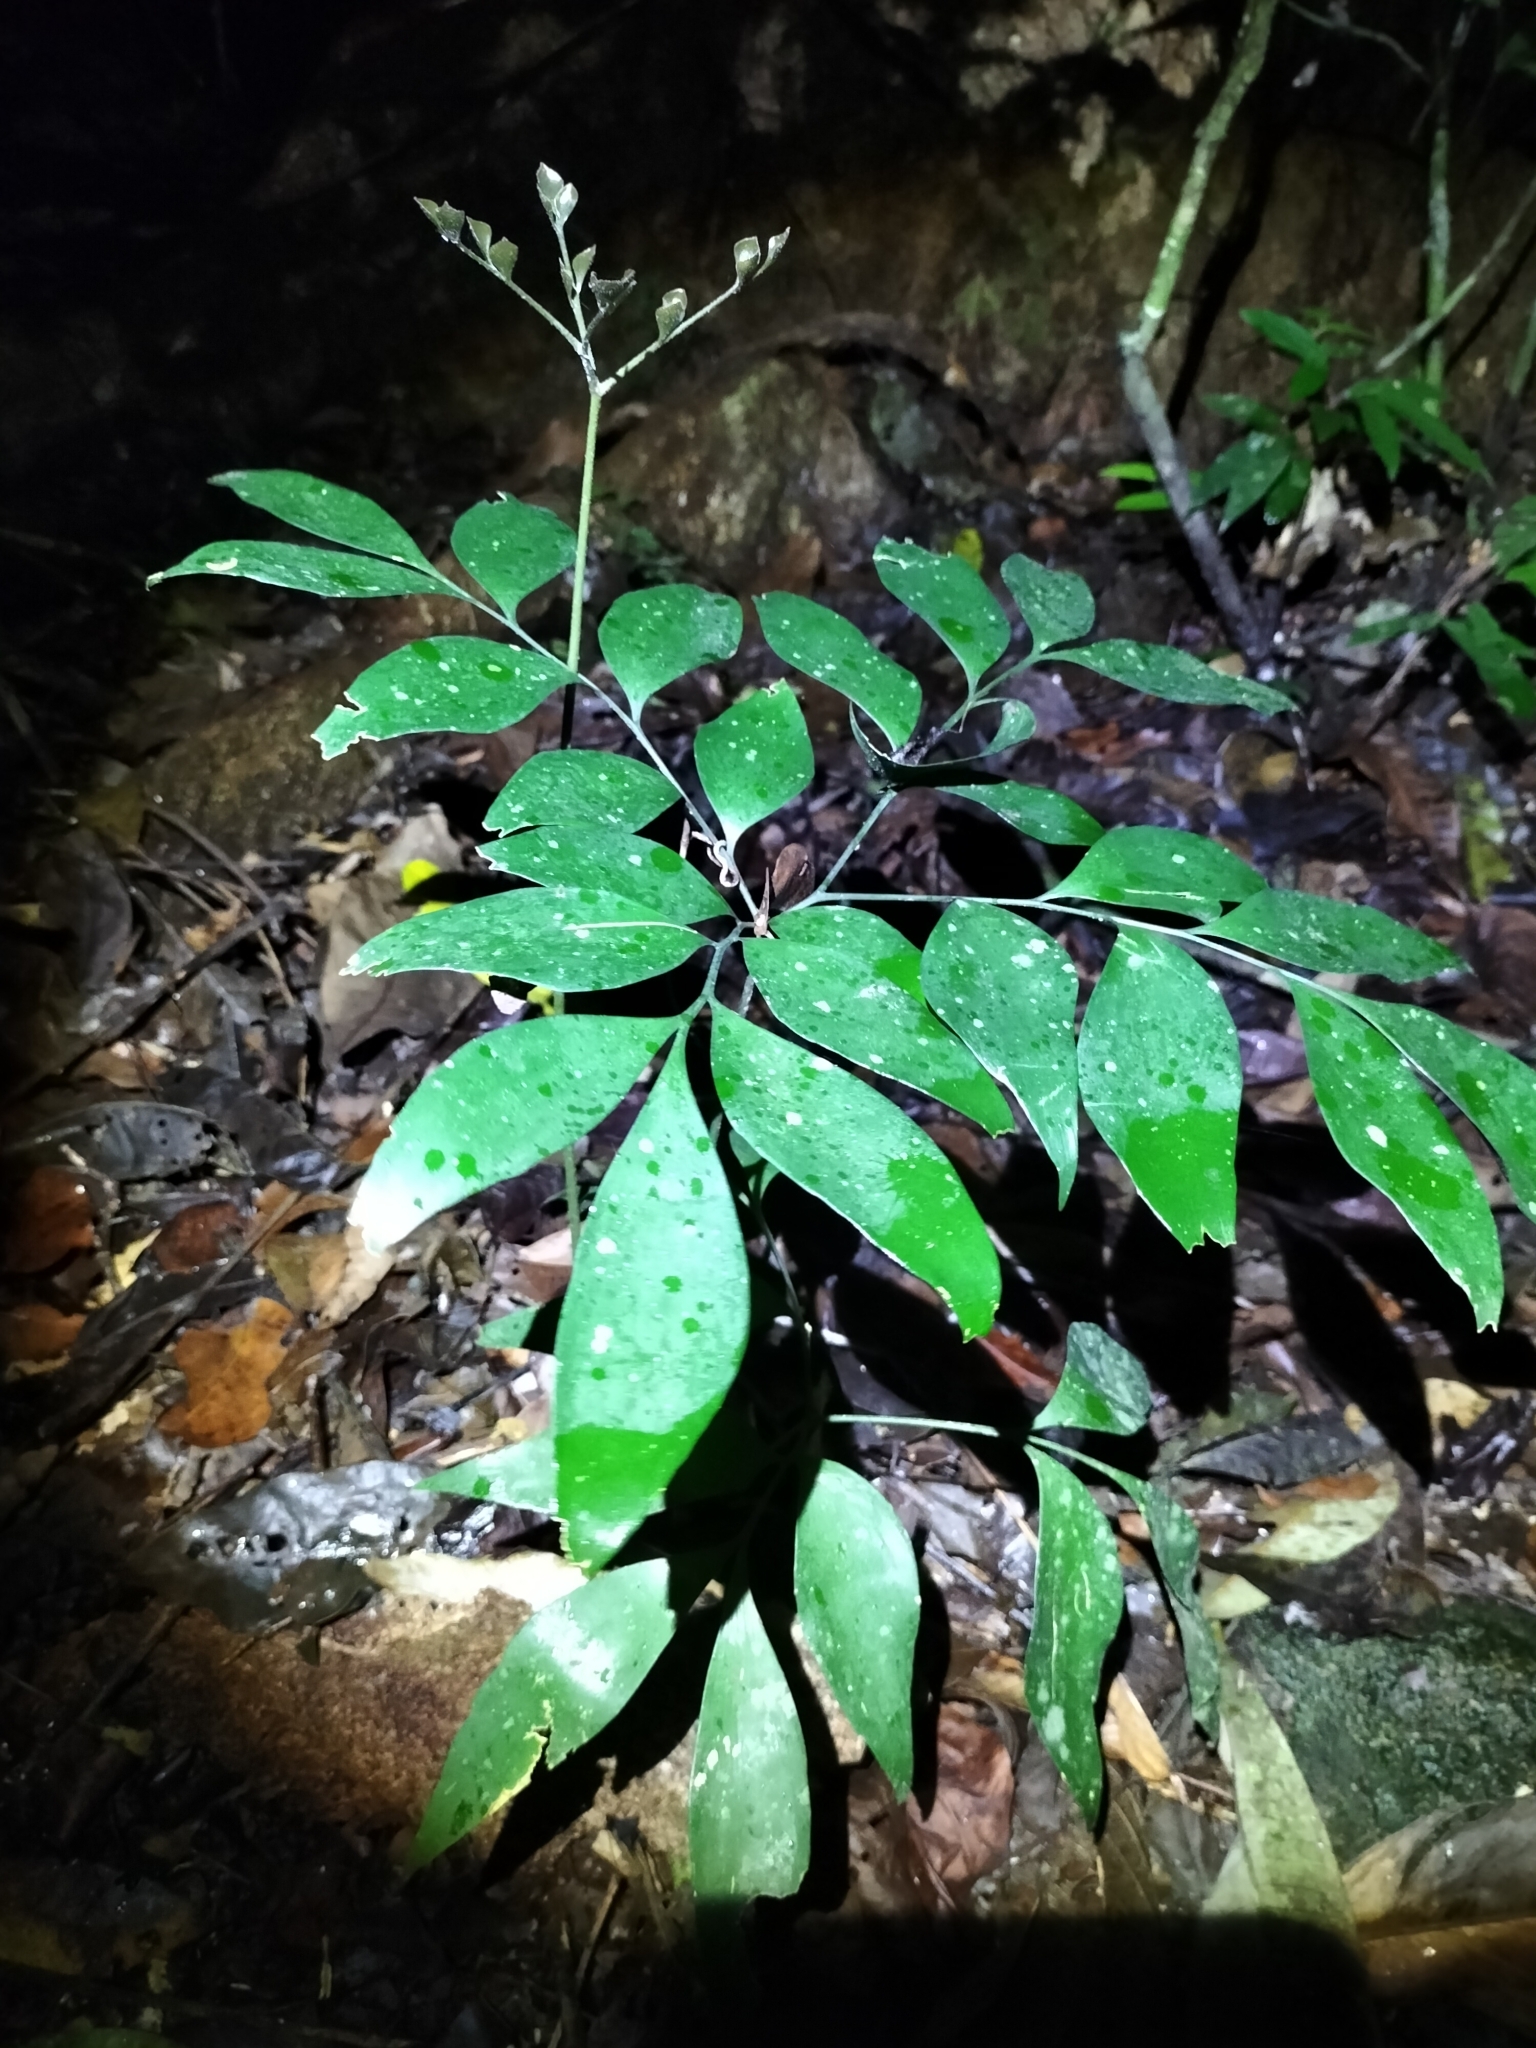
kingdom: Plantae
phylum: Tracheophyta
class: Cycadopsida
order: Cycadales
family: Zamiaceae
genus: Bowenia
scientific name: Bowenia spectabilis
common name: Zamia-fern
